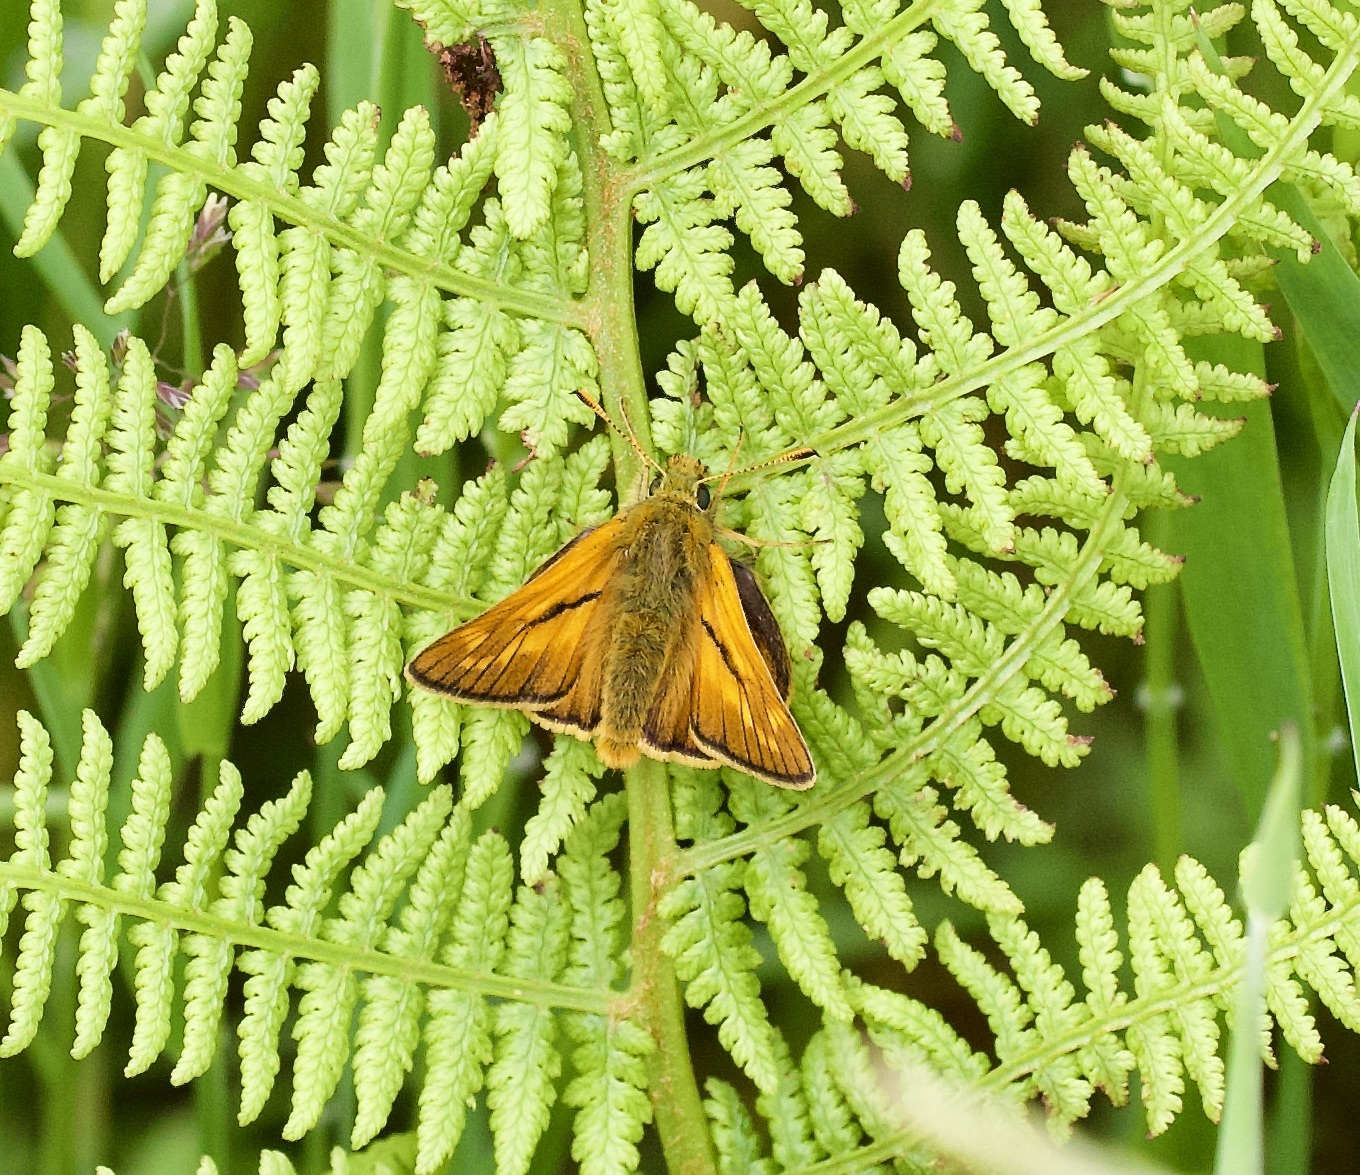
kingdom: Animalia
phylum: Arthropoda
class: Insecta
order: Lepidoptera
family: Hesperiidae
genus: Ochlodes
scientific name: Ochlodes venata
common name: Large skipper
